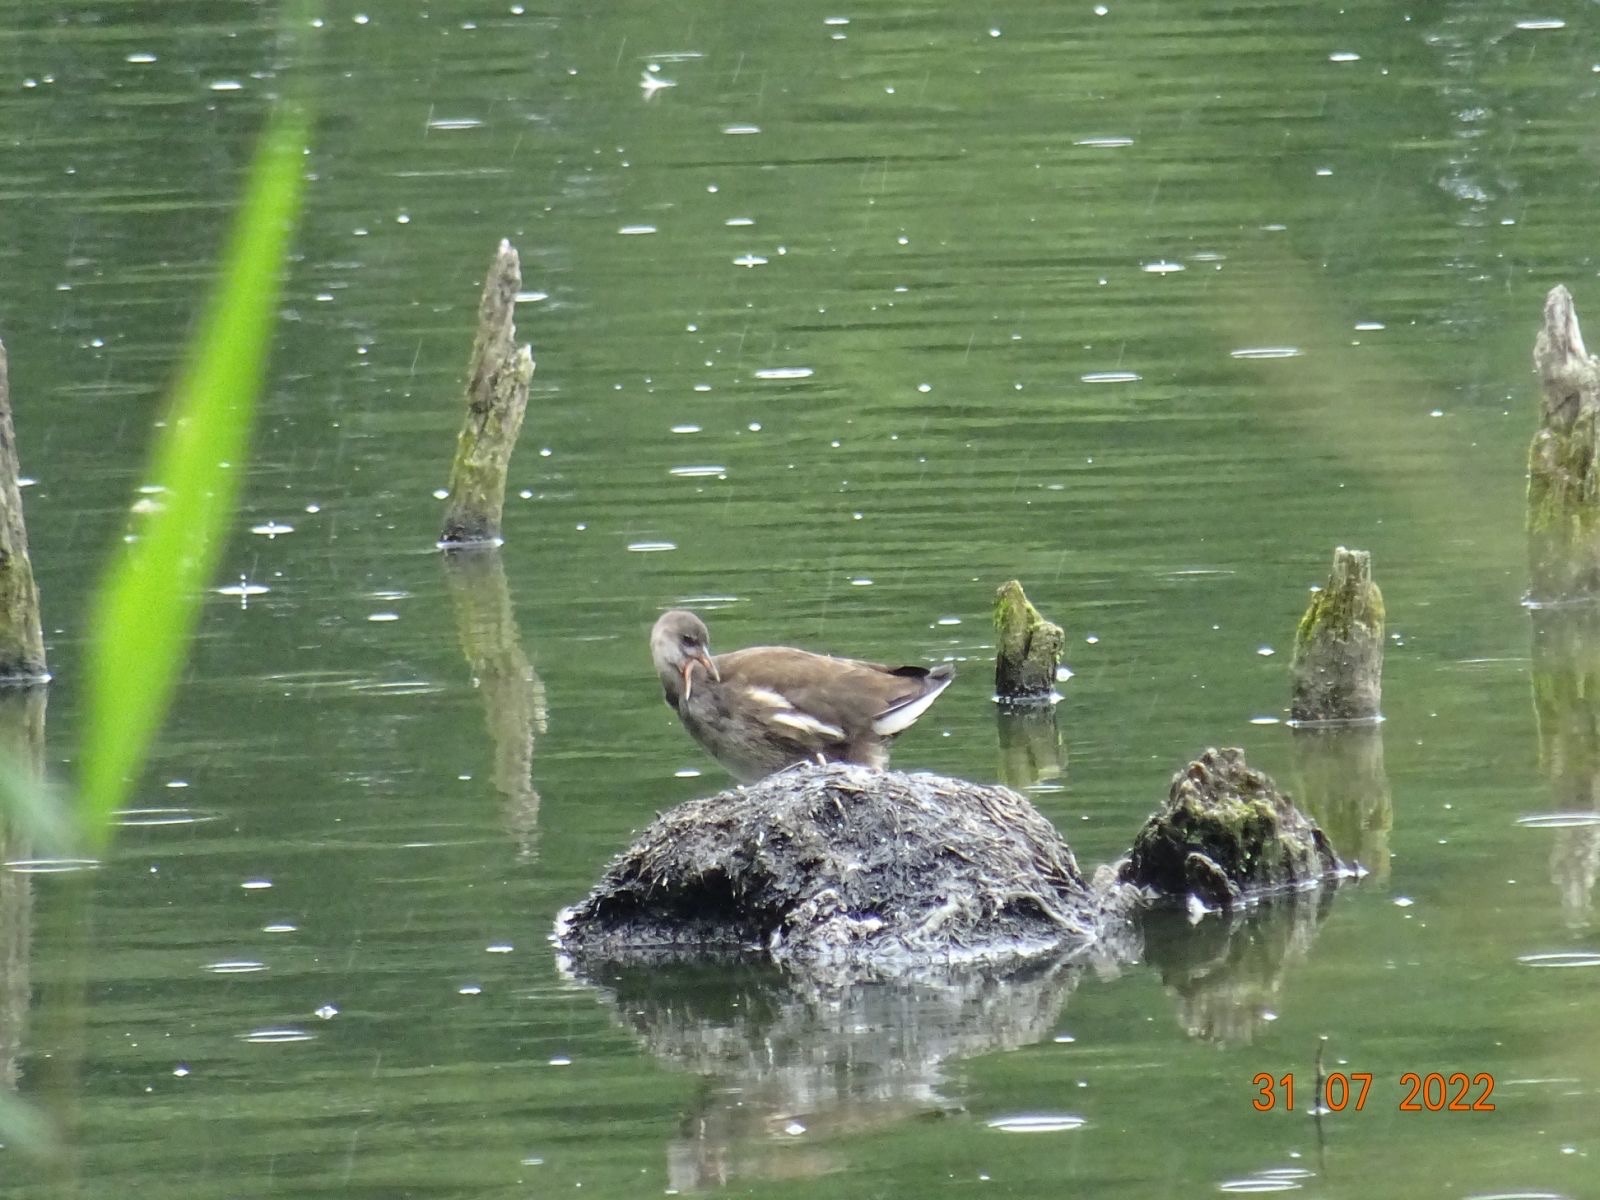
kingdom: Animalia
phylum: Chordata
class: Aves
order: Gruiformes
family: Rallidae
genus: Gallinula
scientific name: Gallinula chloropus
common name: Common moorhen
